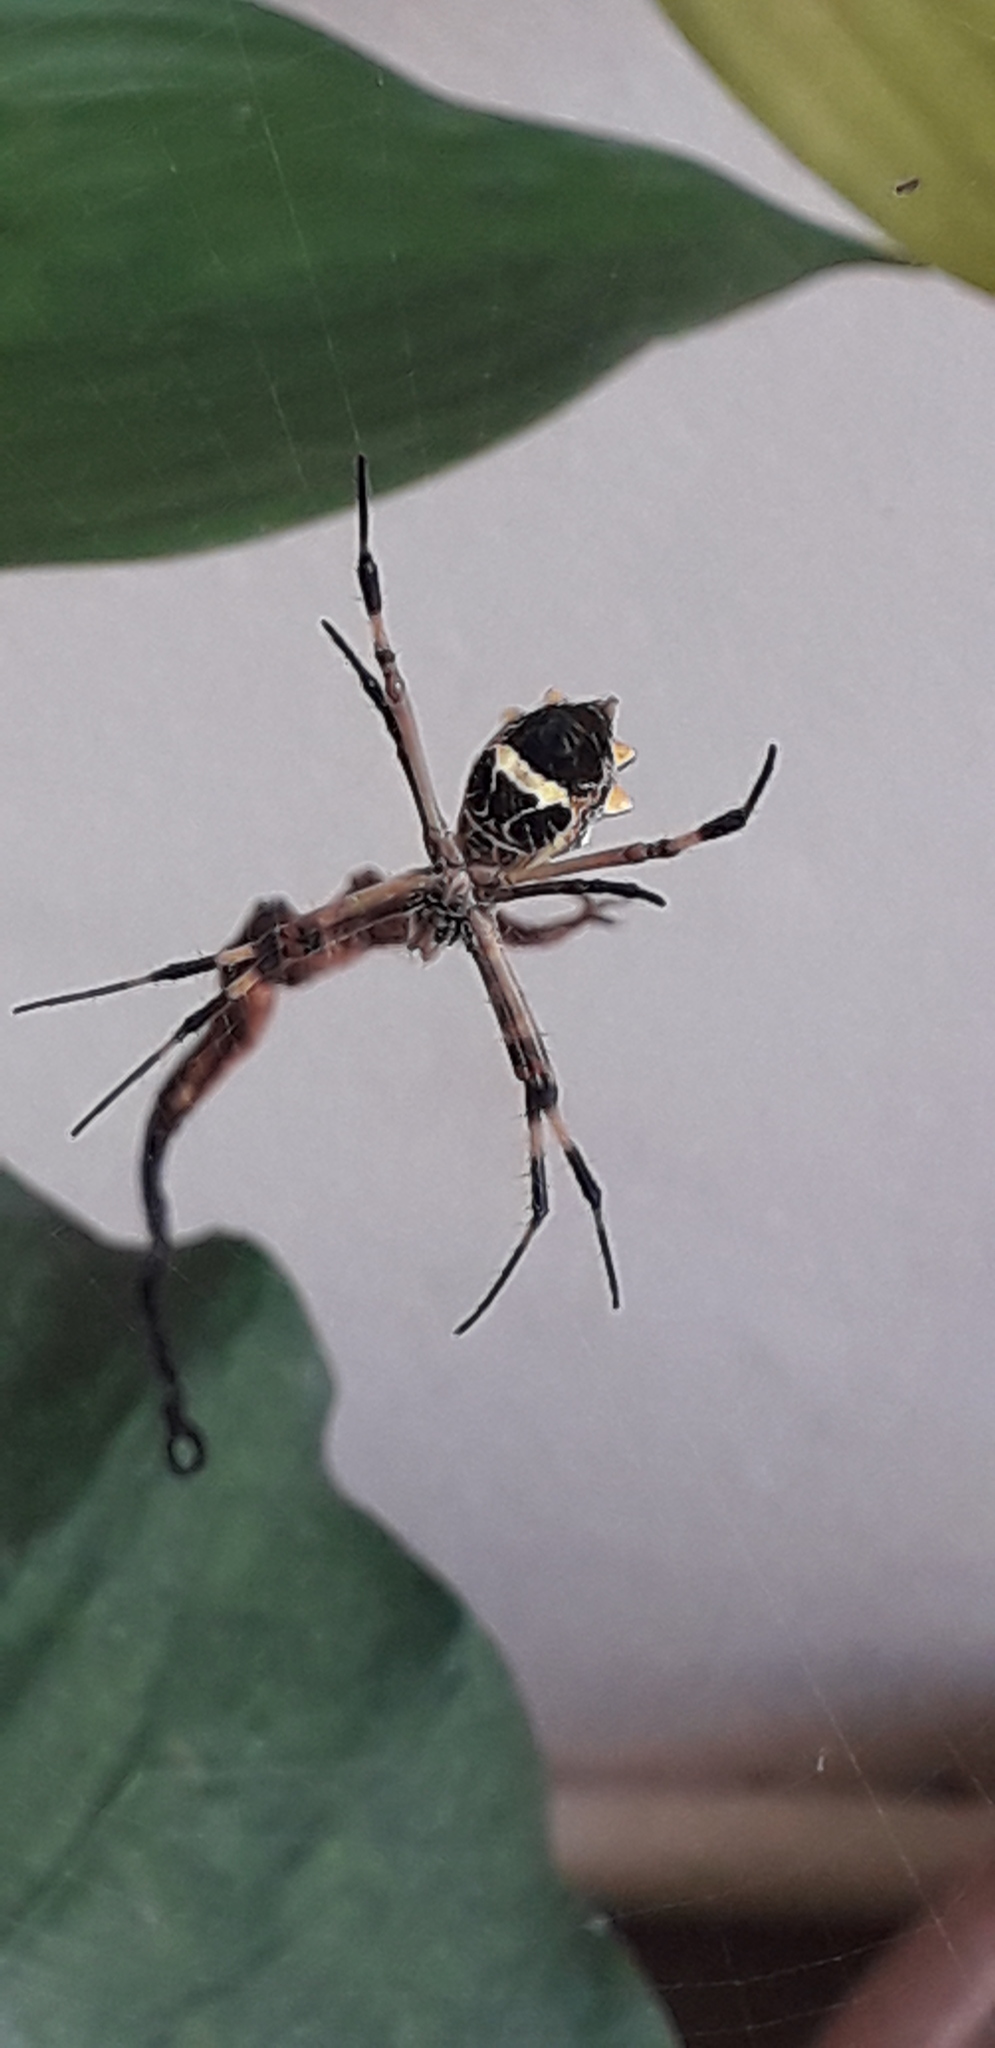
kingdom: Animalia
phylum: Arthropoda
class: Arachnida
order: Araneae
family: Araneidae
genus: Argiope
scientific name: Argiope argentata
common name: Orb weavers
